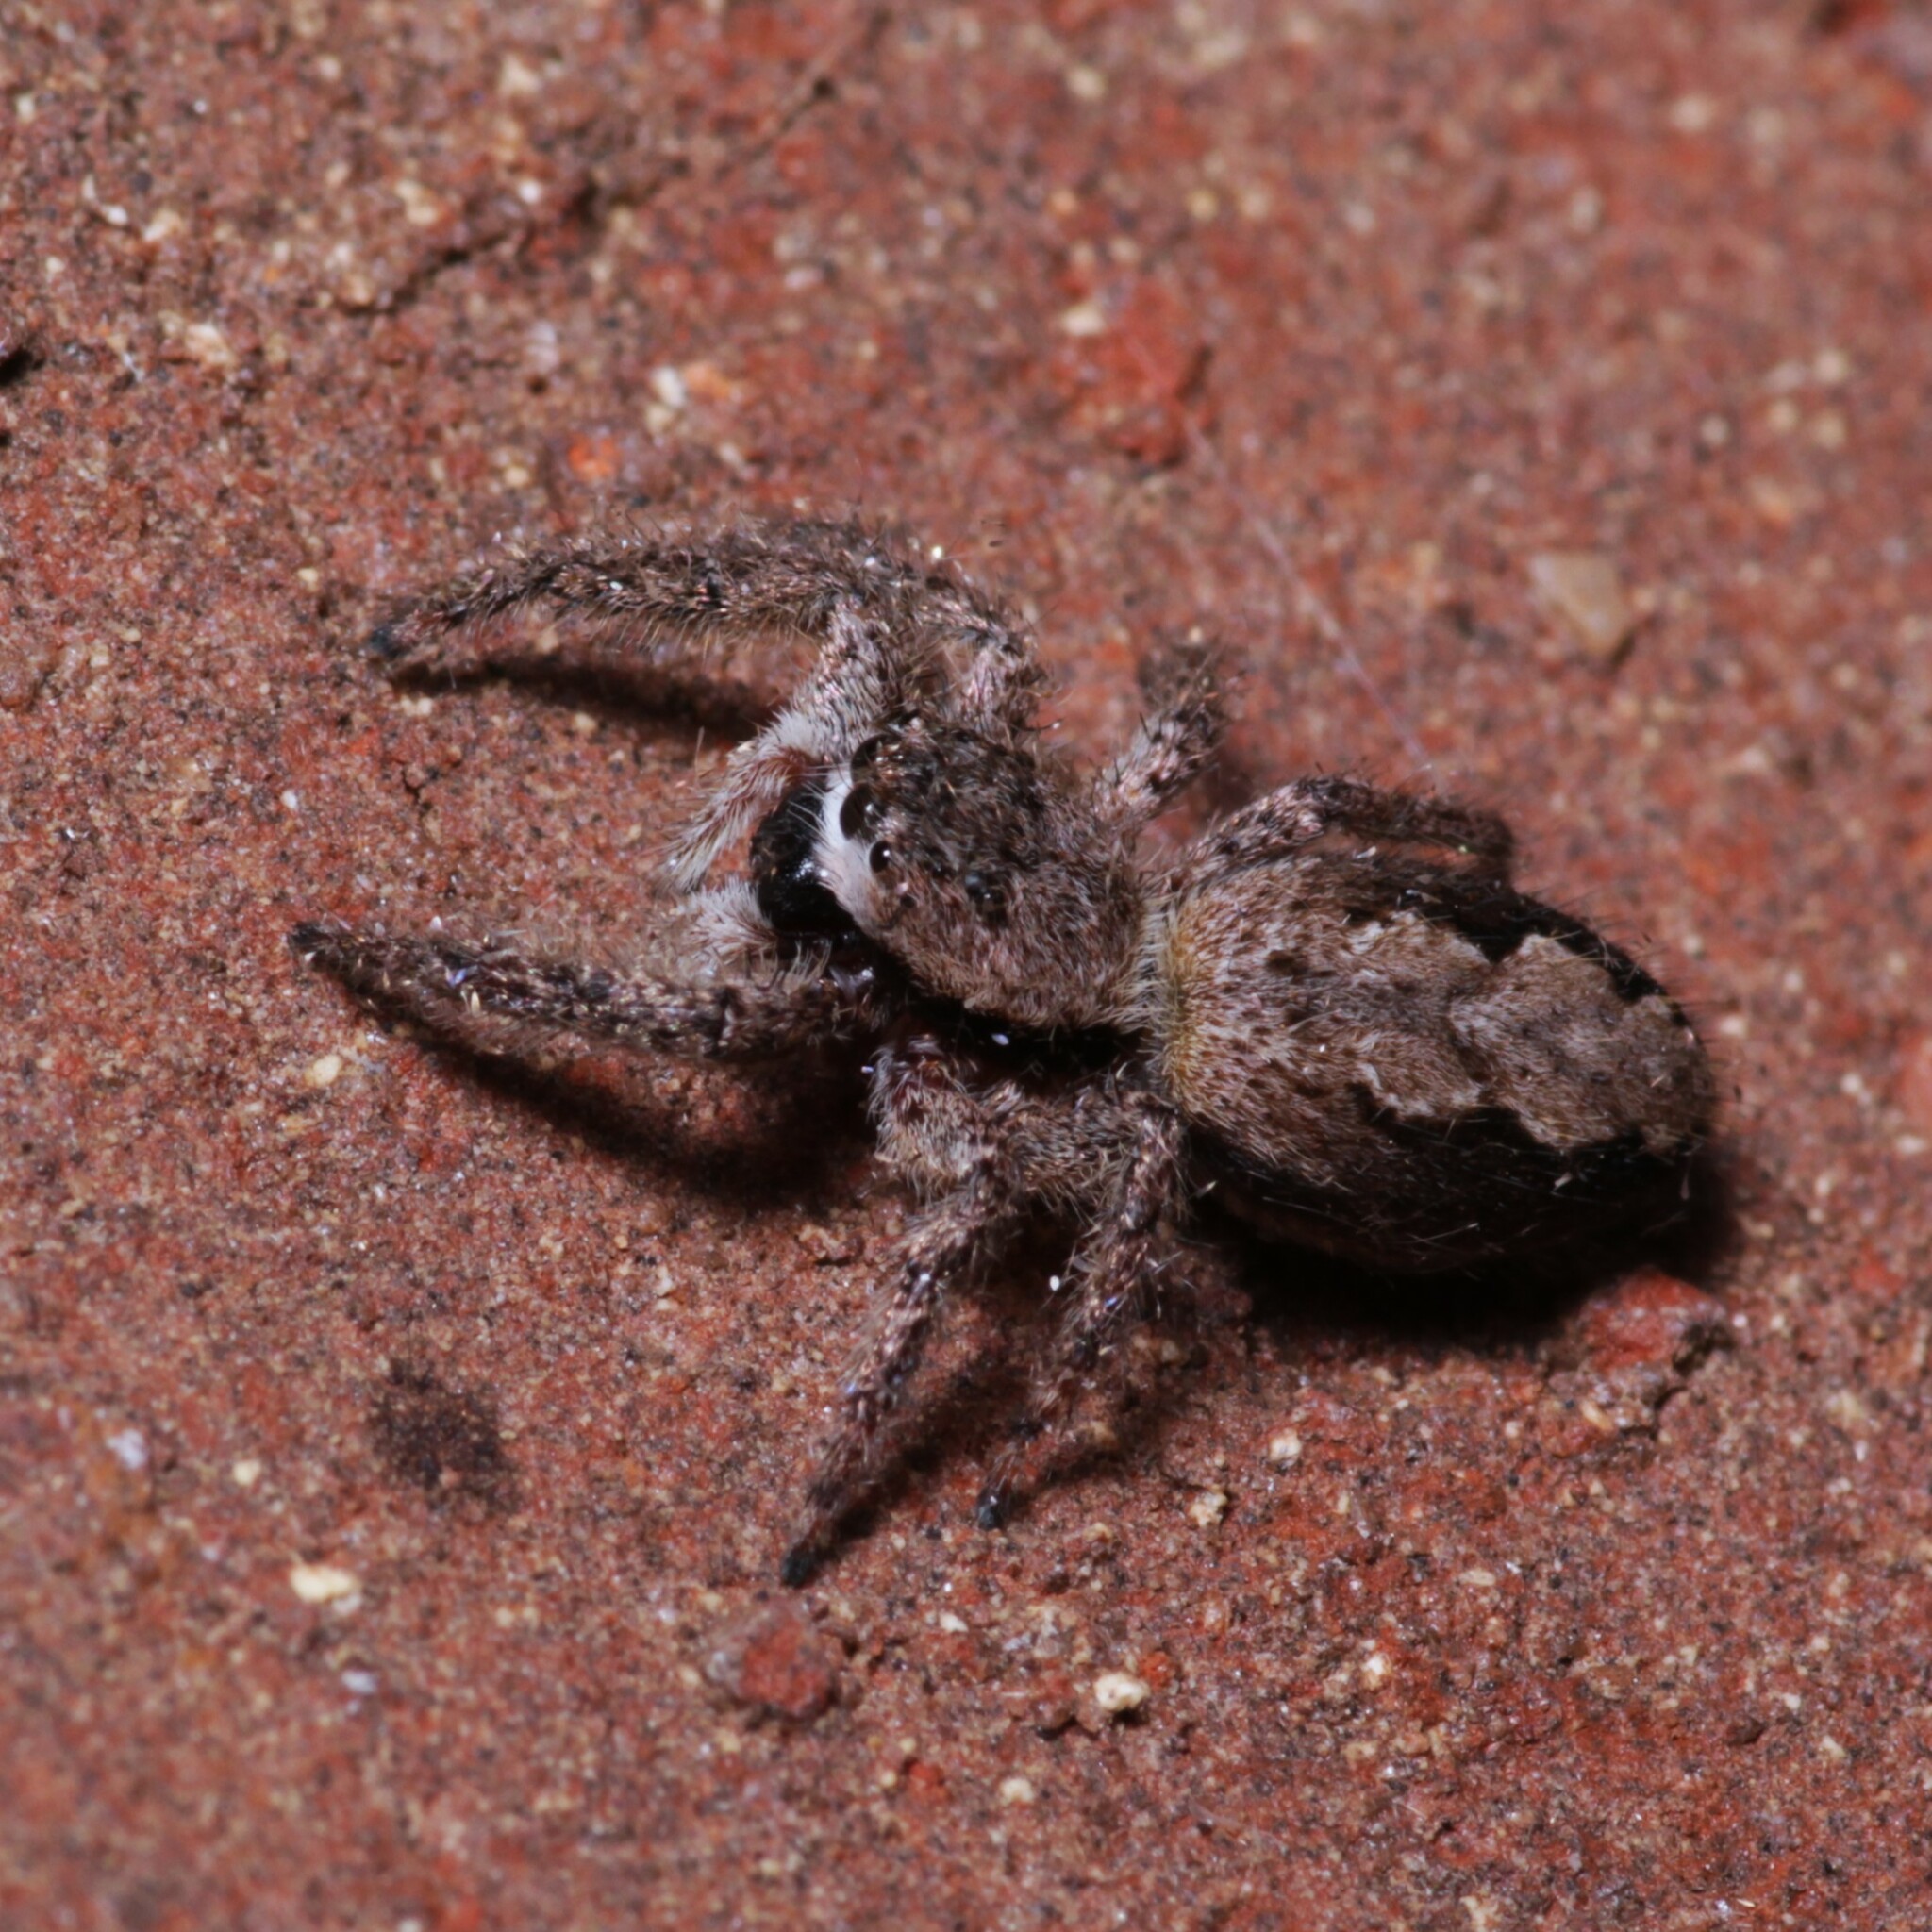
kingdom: Animalia
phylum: Arthropoda
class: Arachnida
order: Araneae
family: Salticidae
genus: Platycryptus
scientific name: Platycryptus undatus
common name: Tan jumping spider
